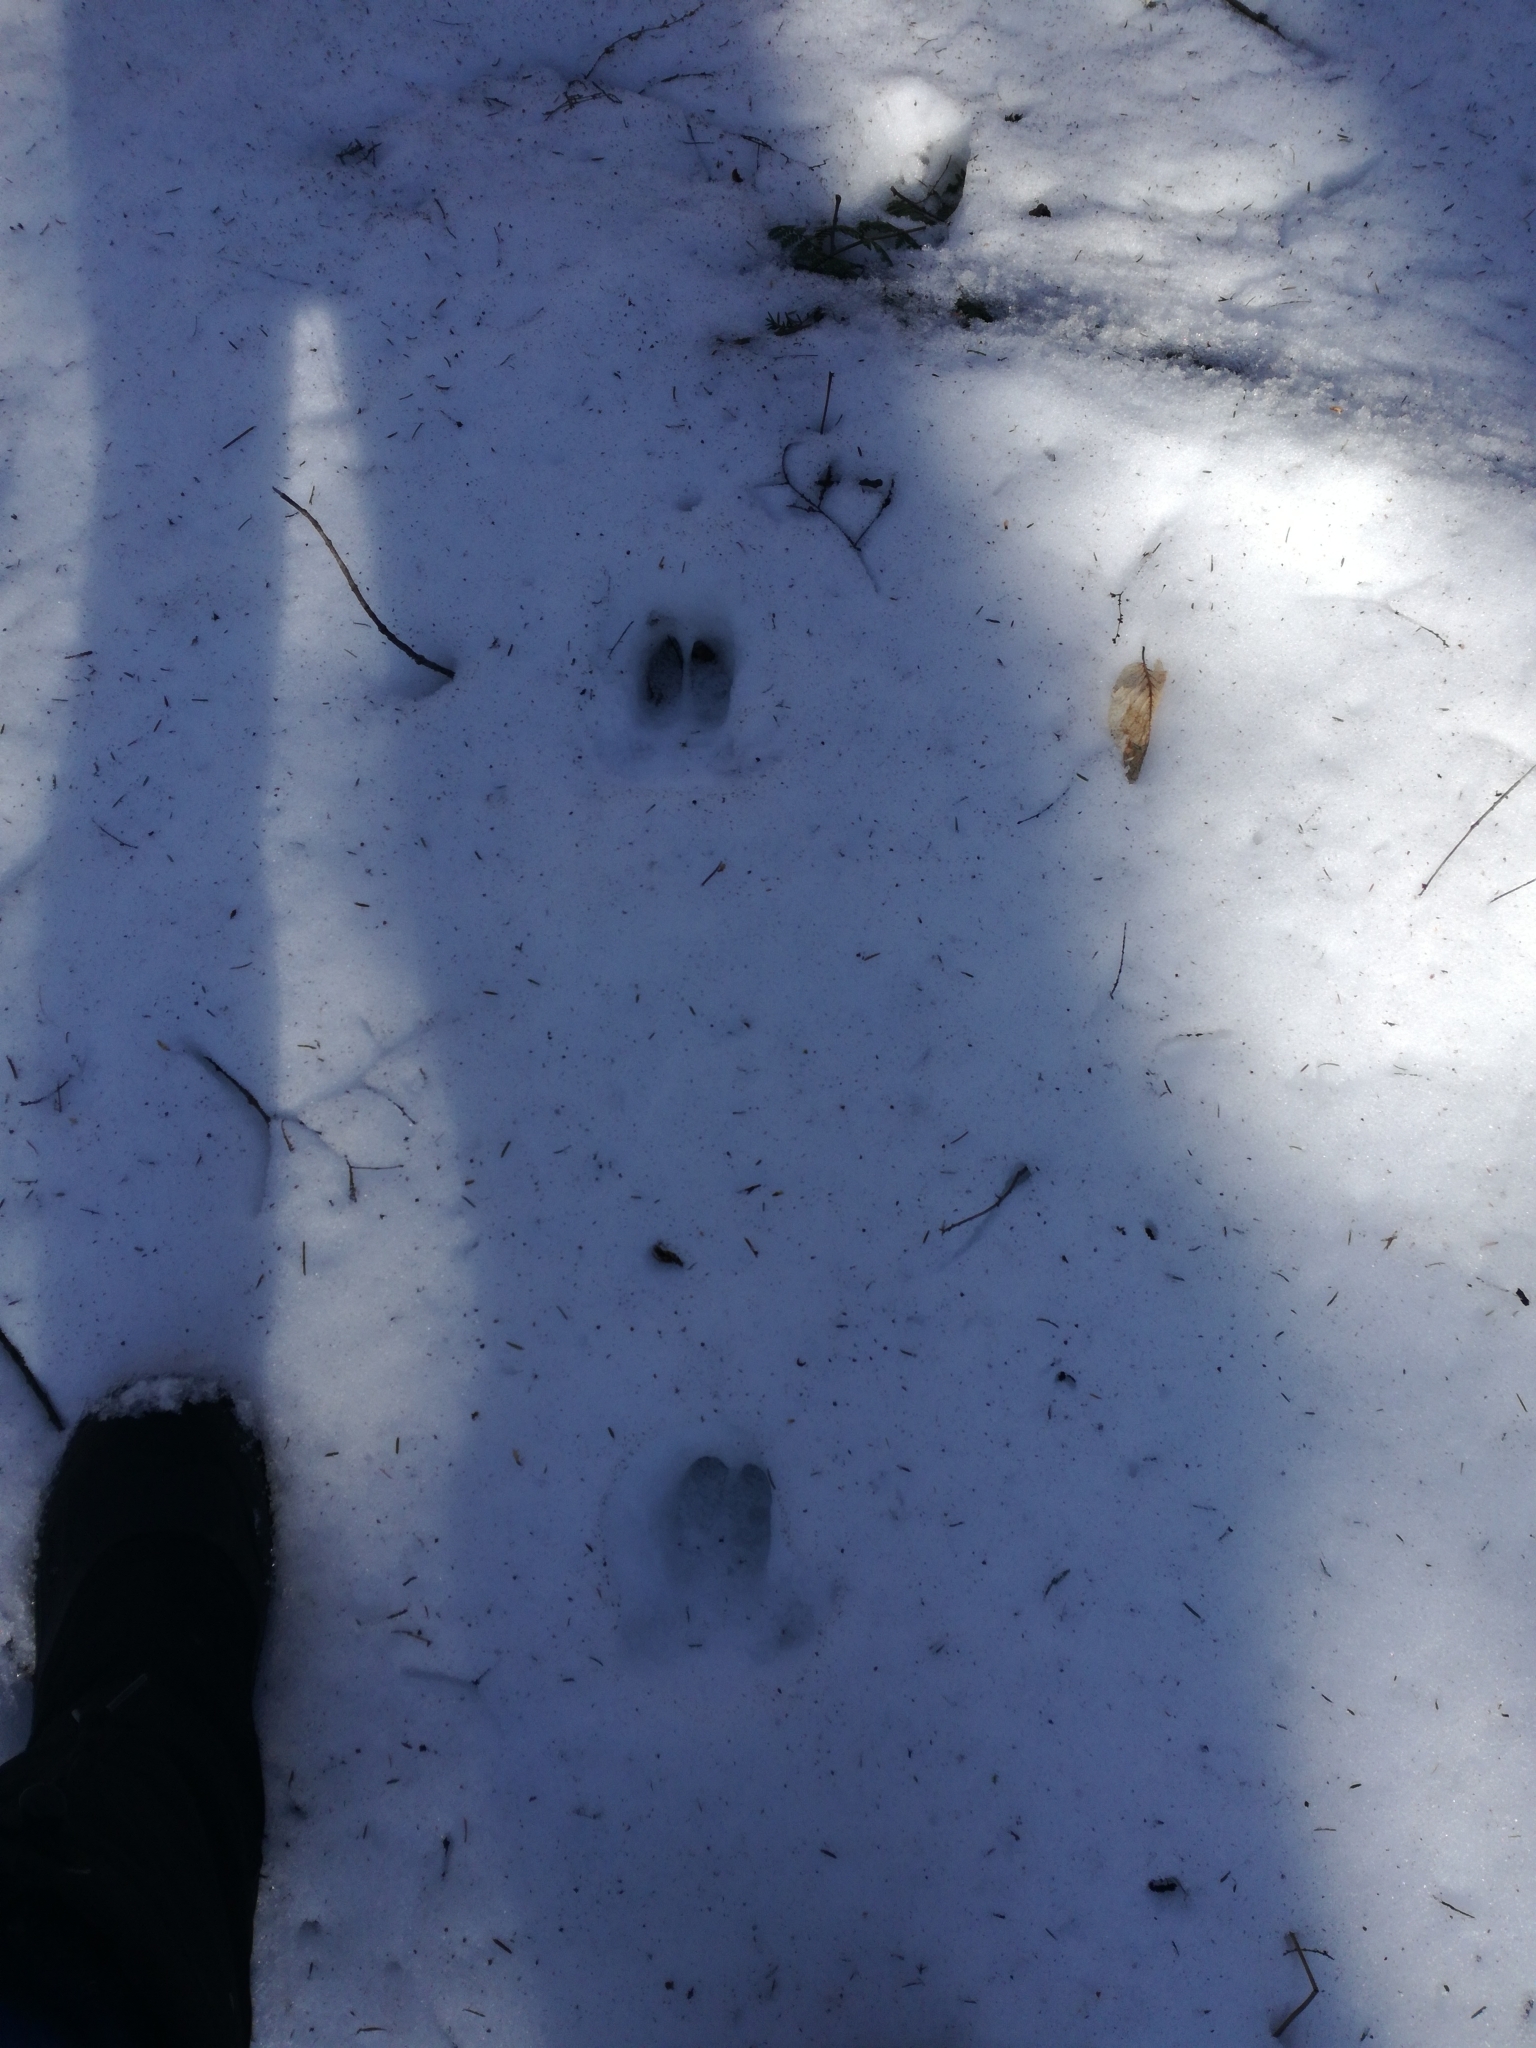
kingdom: Animalia
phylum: Chordata
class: Mammalia
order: Artiodactyla
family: Cervidae
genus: Odocoileus
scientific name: Odocoileus virginianus
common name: White-tailed deer
